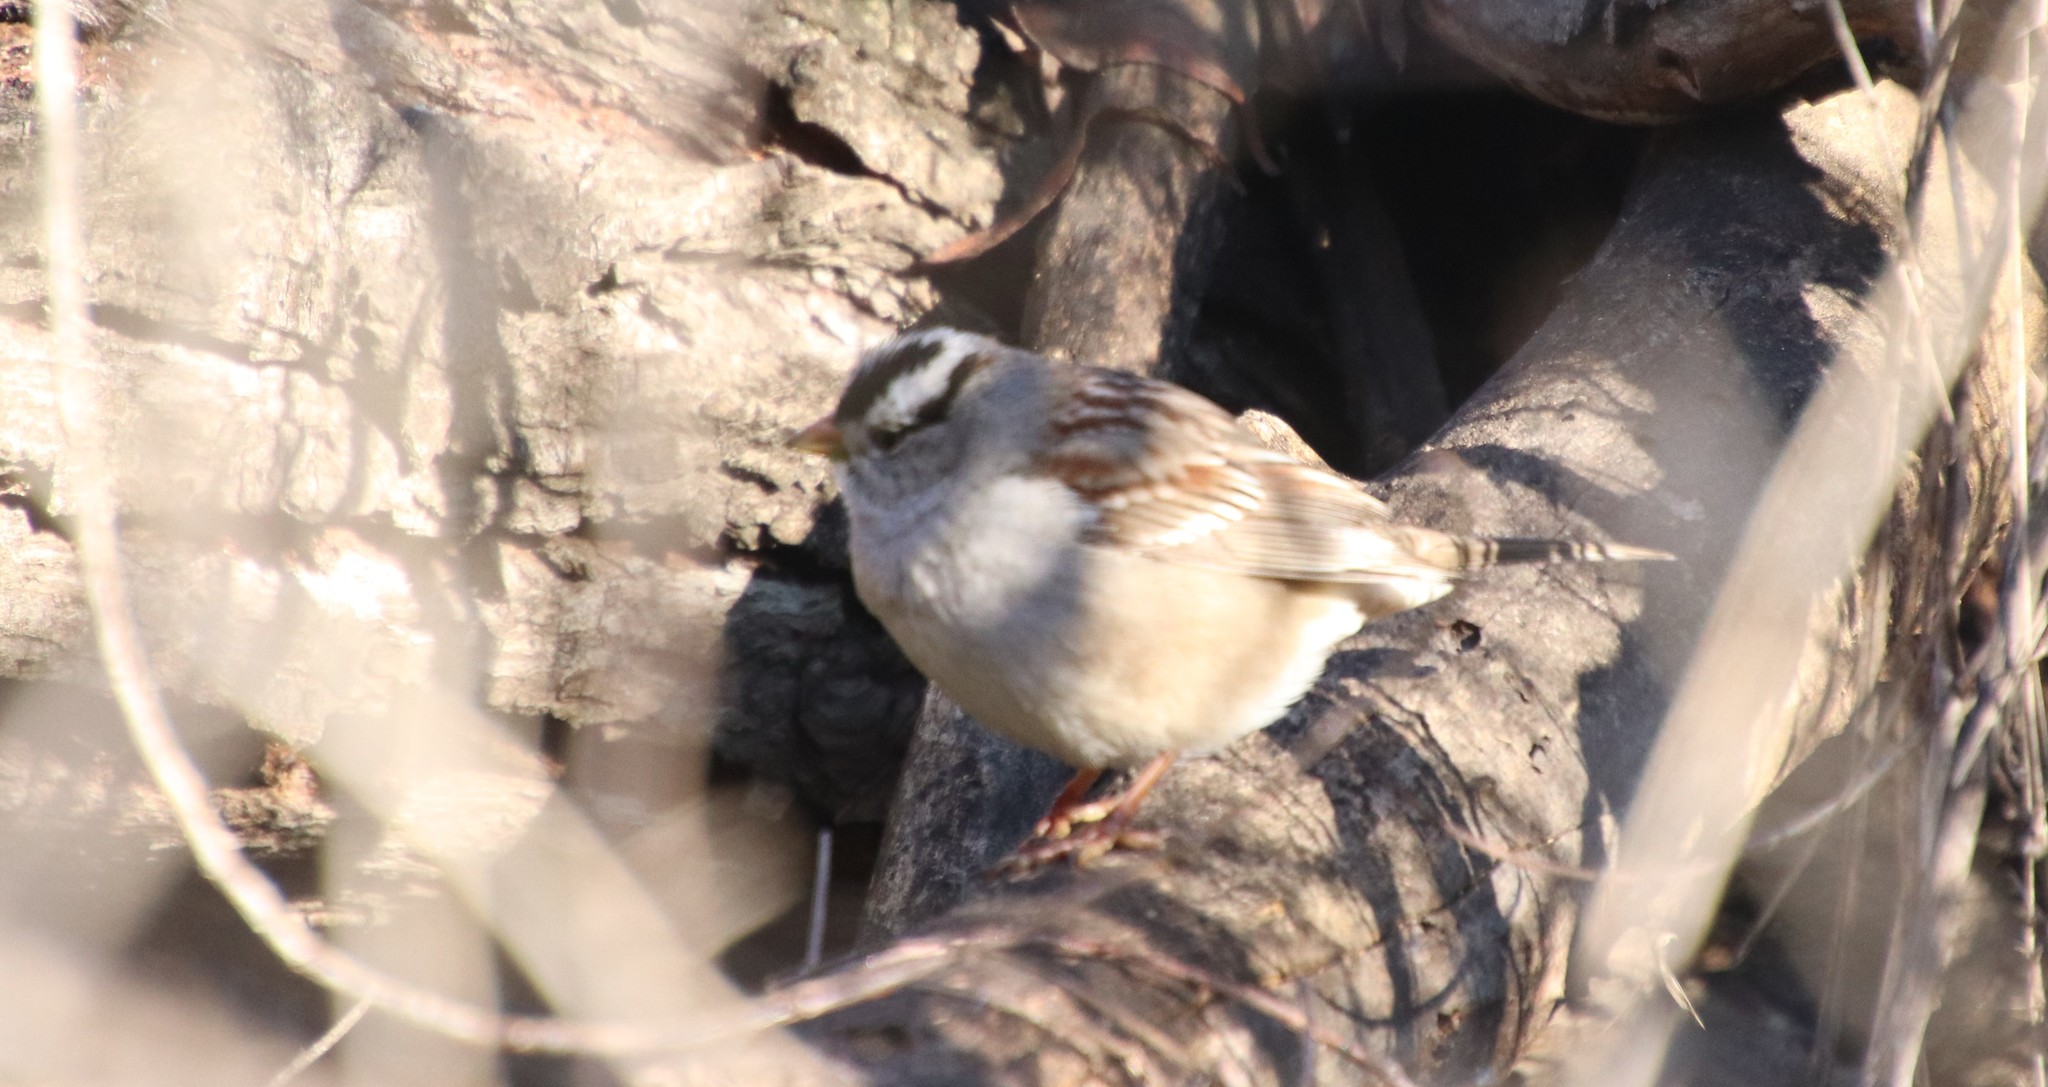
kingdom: Animalia
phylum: Chordata
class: Aves
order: Passeriformes
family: Passerellidae
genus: Zonotrichia
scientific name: Zonotrichia leucophrys
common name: White-crowned sparrow
